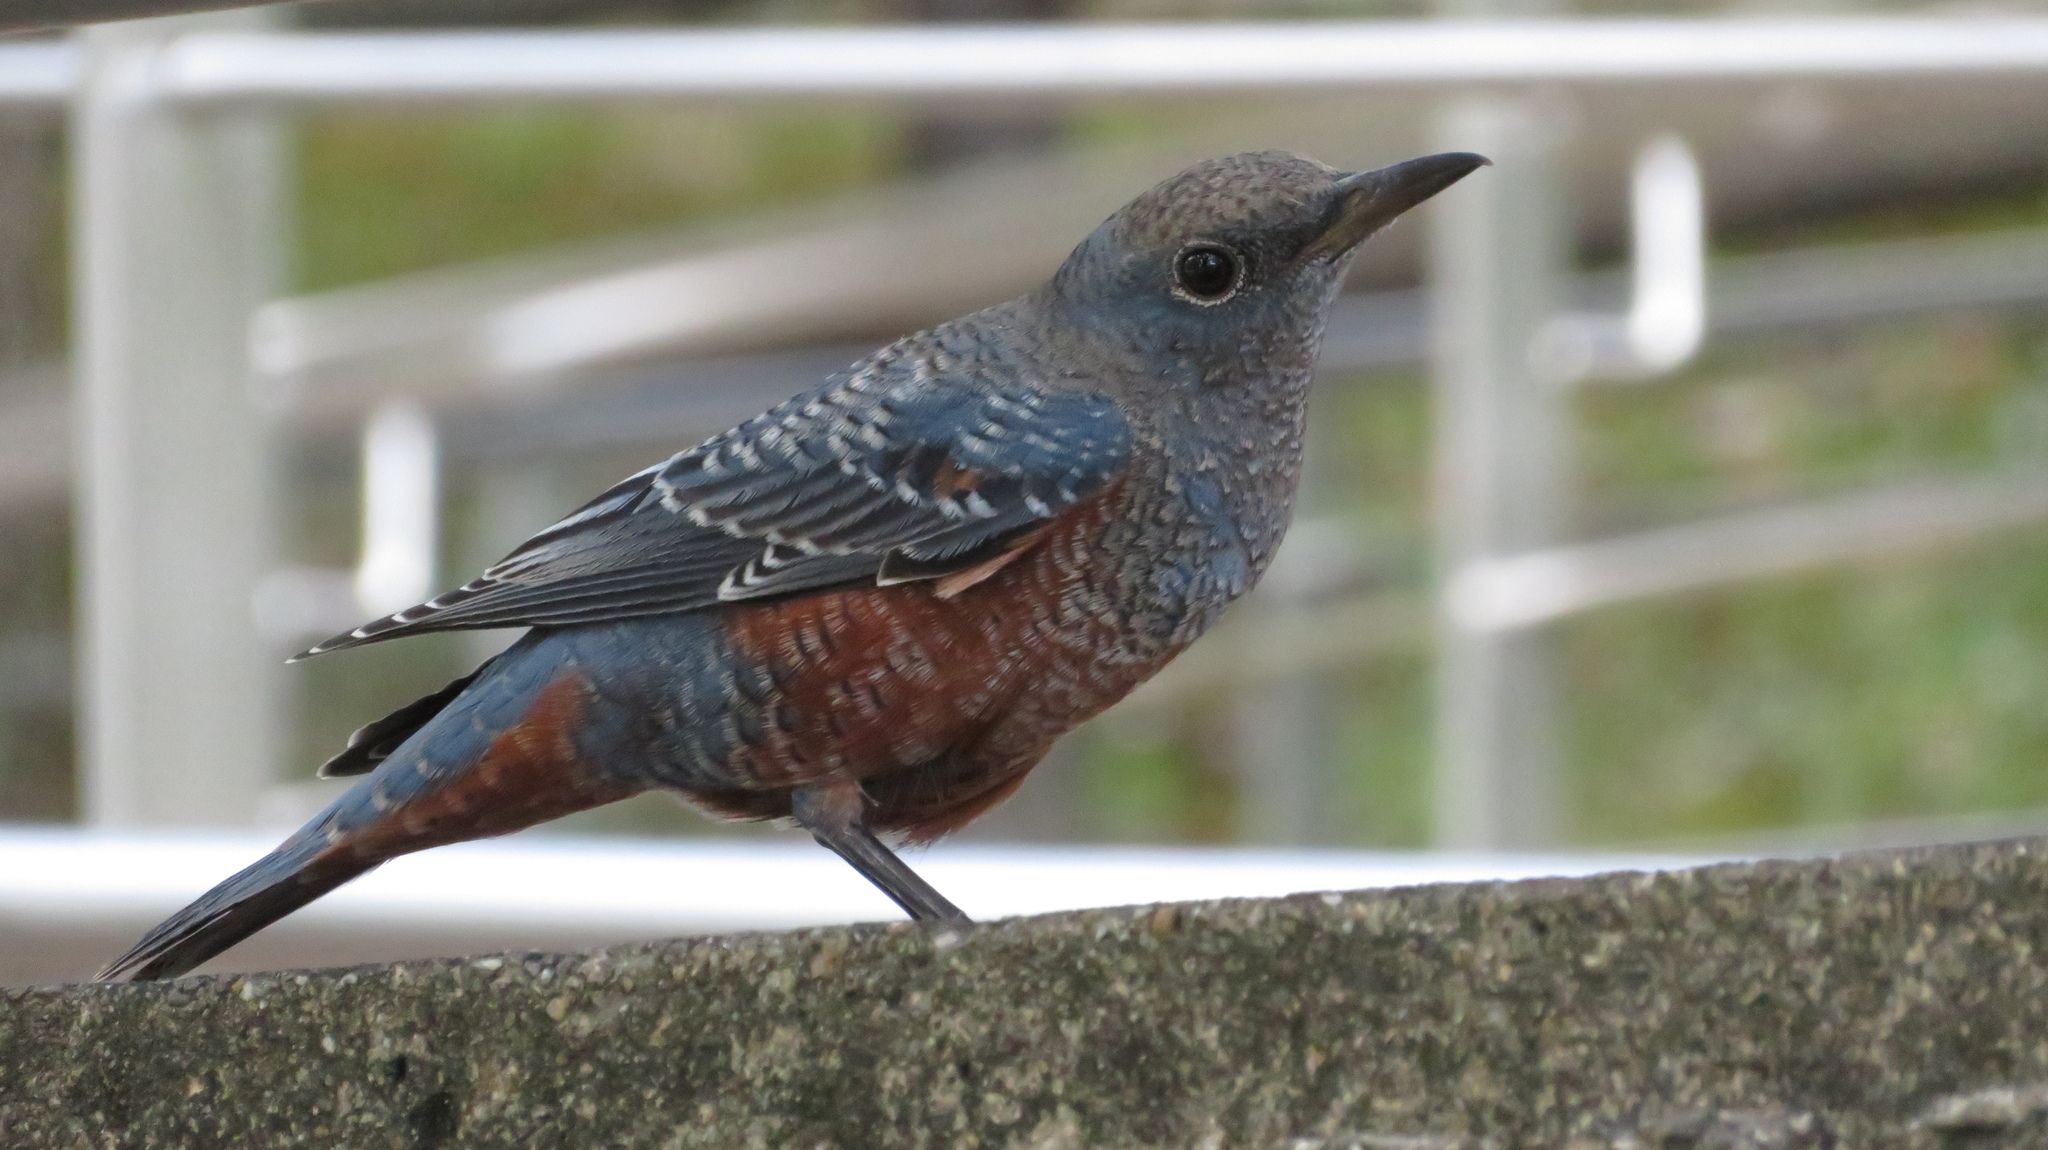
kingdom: Animalia
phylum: Chordata
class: Aves
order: Passeriformes
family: Muscicapidae
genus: Monticola
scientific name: Monticola solitarius
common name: Blue rock thrush
